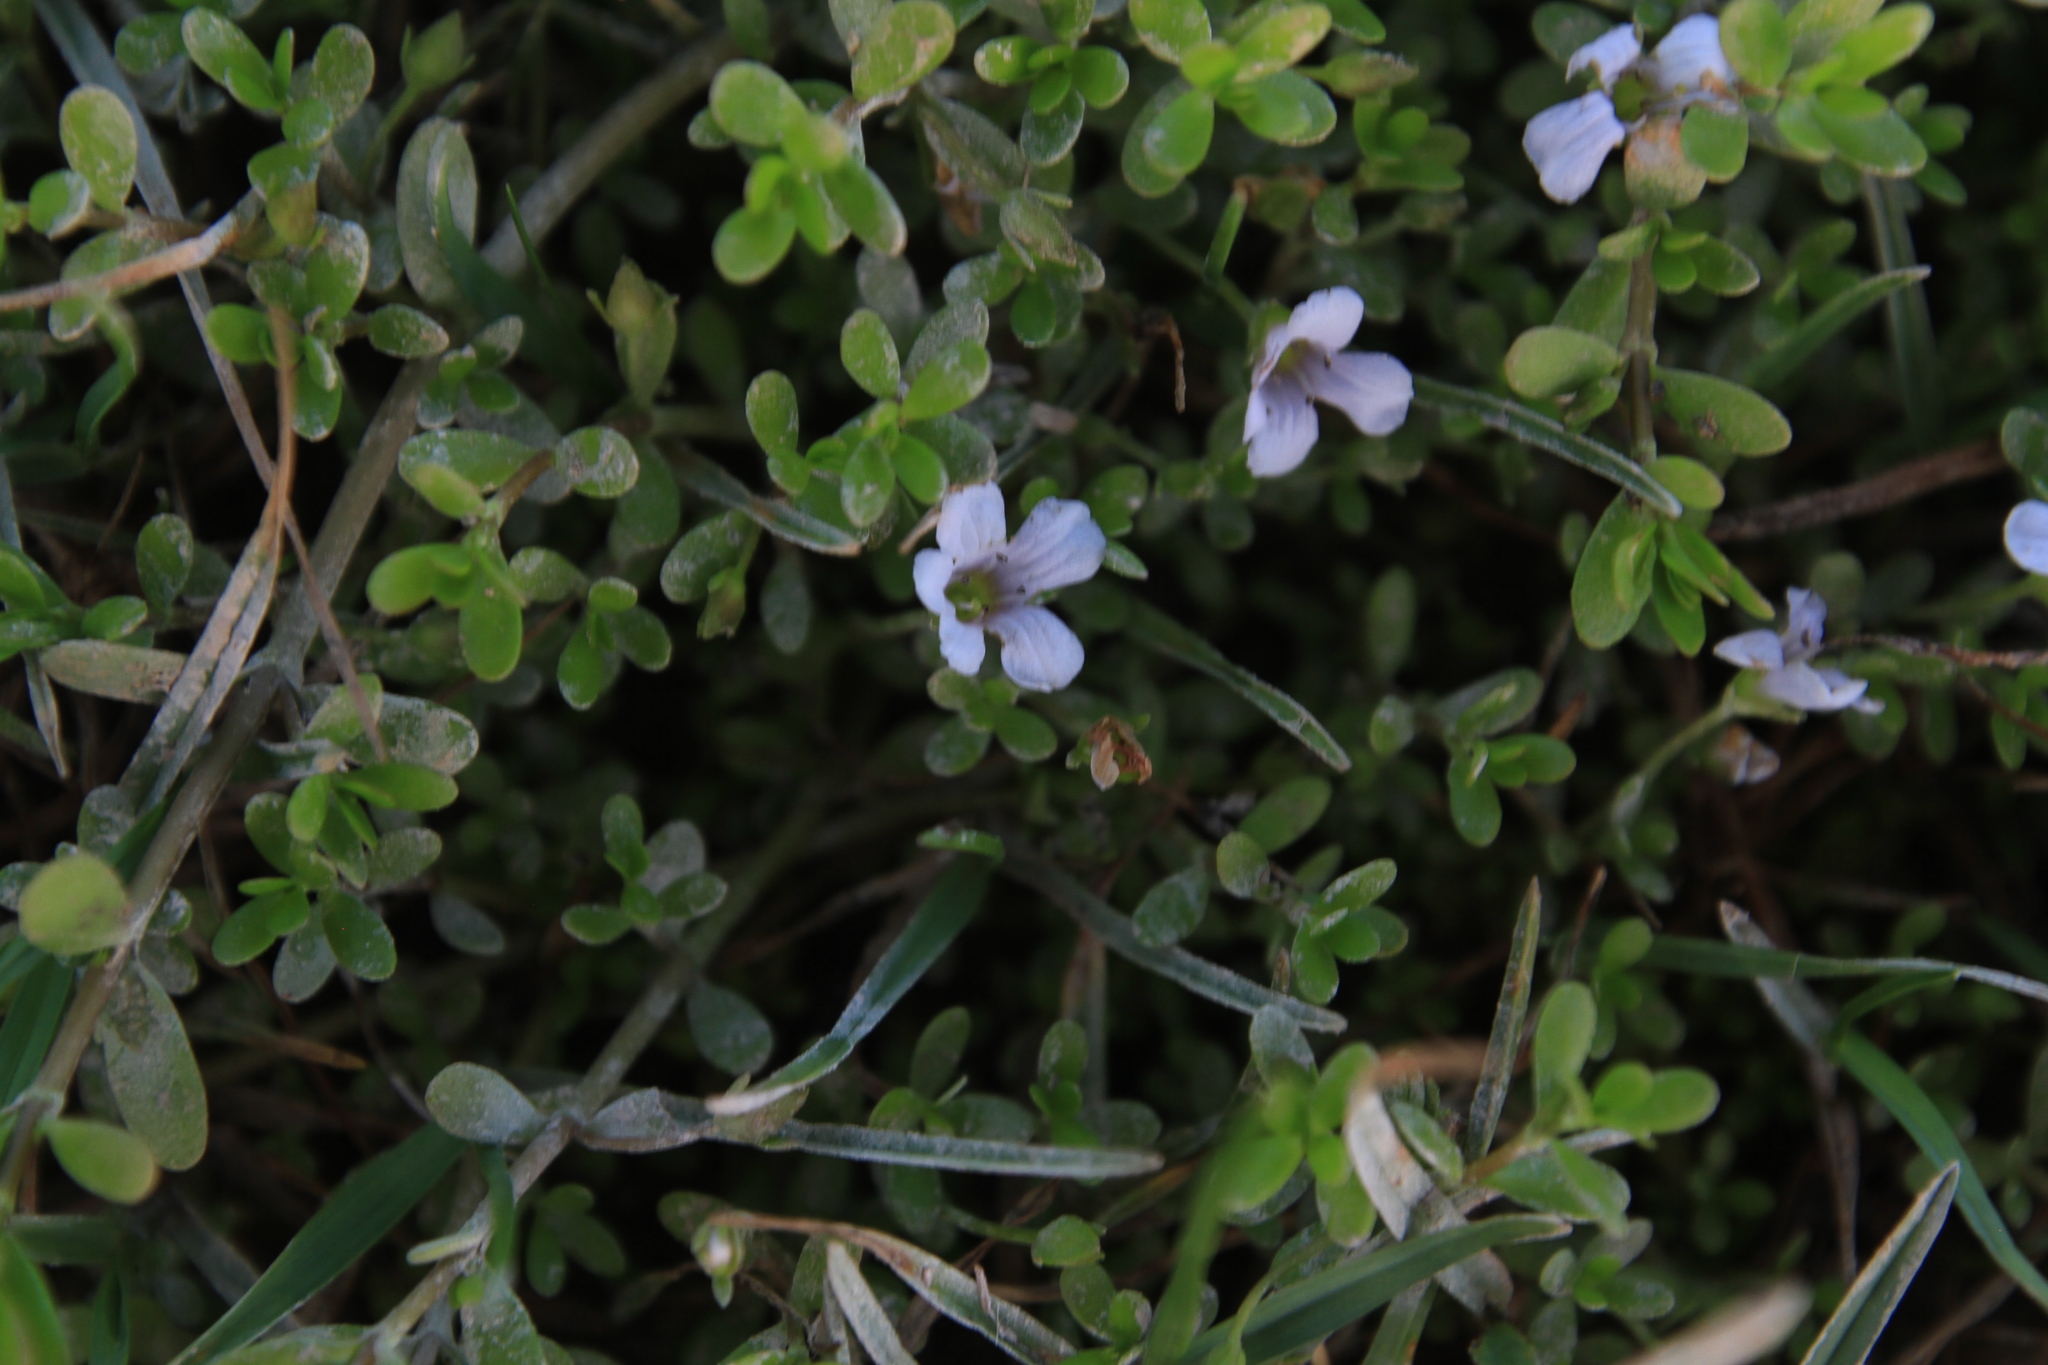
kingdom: Plantae
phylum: Tracheophyta
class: Magnoliopsida
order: Lamiales
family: Plantaginaceae
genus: Bacopa
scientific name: Bacopa monnieri
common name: Indian-pennywort
